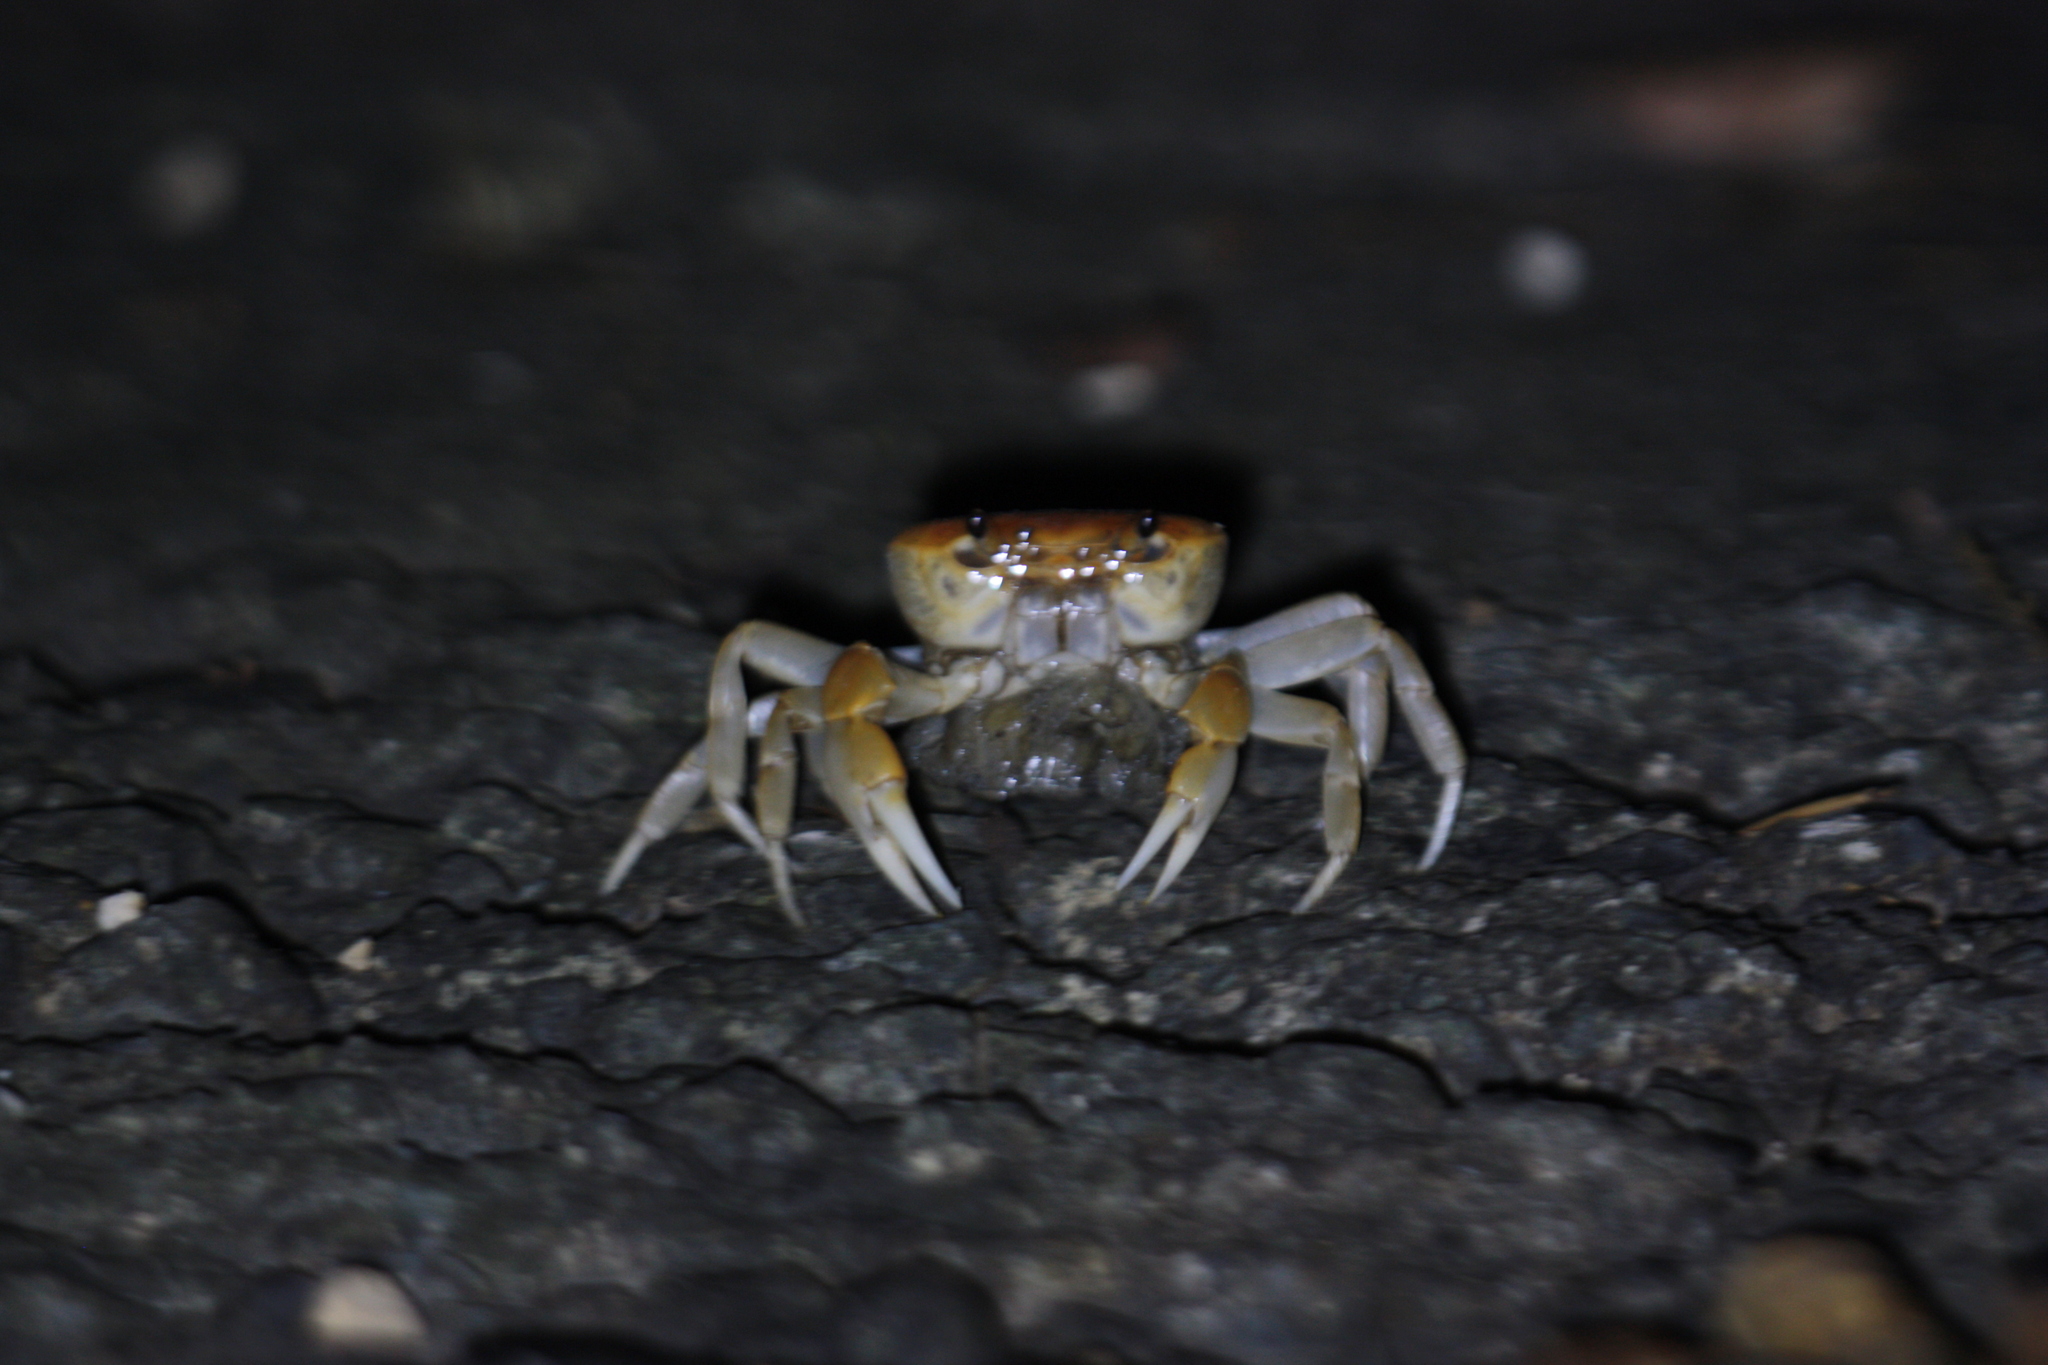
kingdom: Animalia
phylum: Arthropoda
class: Malacostraca
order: Decapoda
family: Potamidae
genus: Geothelphusa
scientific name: Geothelphusa makatao
